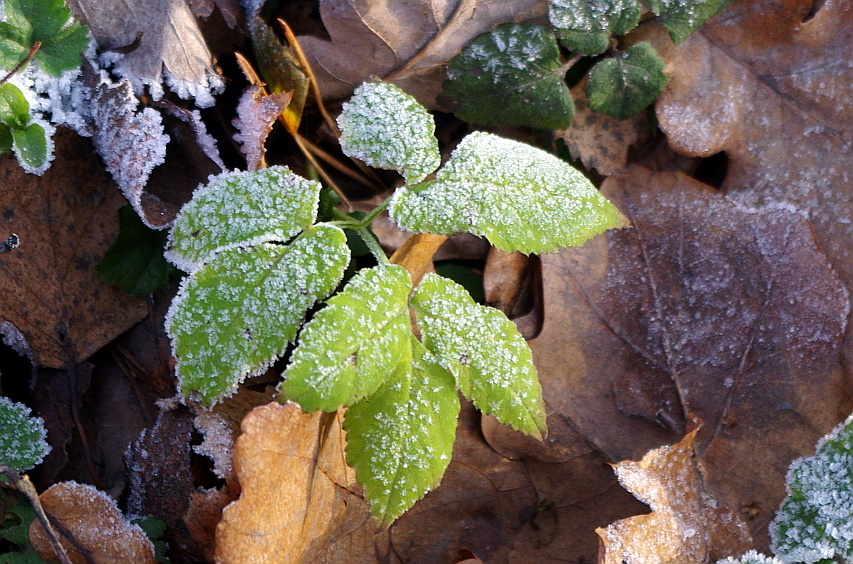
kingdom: Plantae
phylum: Tracheophyta
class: Magnoliopsida
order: Apiales
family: Apiaceae
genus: Aegopodium
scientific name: Aegopodium podagraria
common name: Ground-elder
